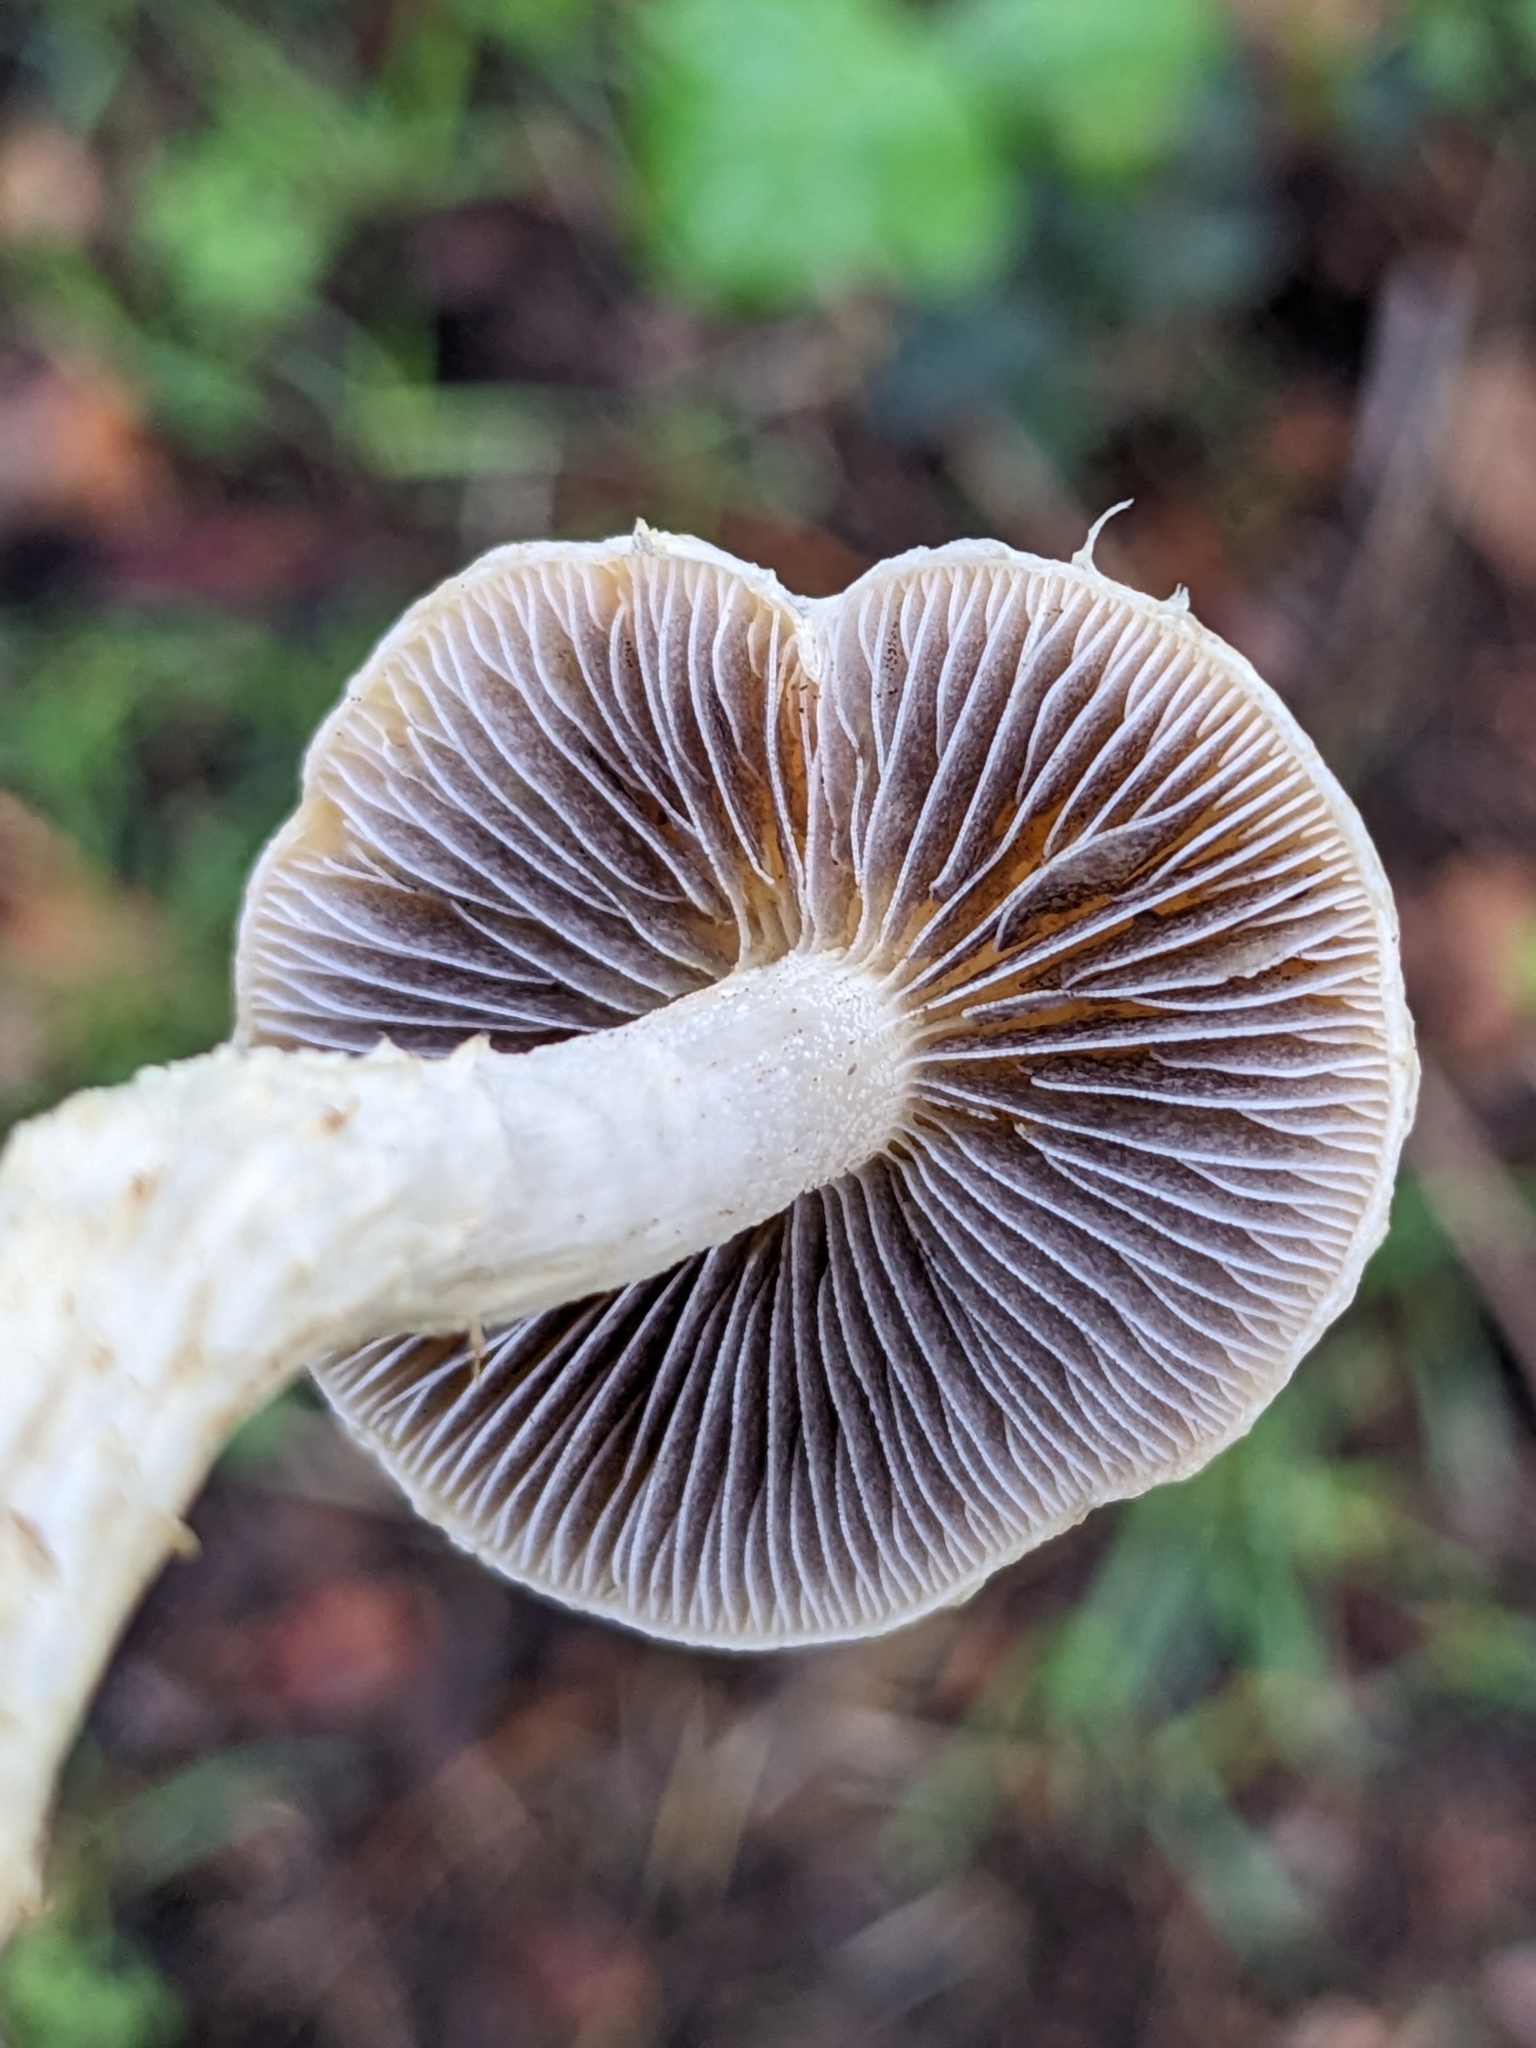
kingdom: Fungi
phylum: Basidiomycota
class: Agaricomycetes
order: Agaricales
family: Strophariaceae
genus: Leratiomyces
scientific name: Leratiomyces percevalii
